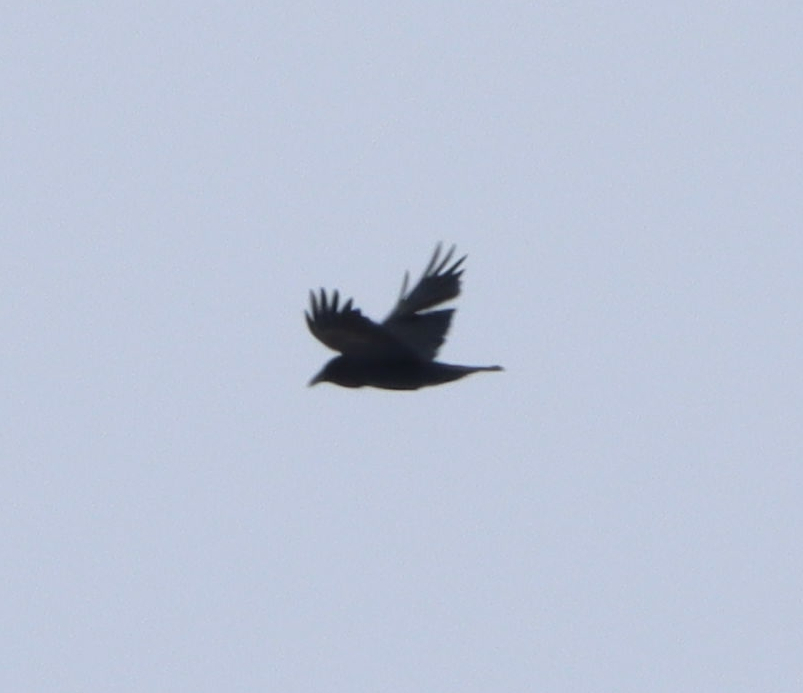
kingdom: Animalia
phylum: Chordata
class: Aves
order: Passeriformes
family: Corvidae
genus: Corvus
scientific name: Corvus brachyrhynchos
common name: American crow
